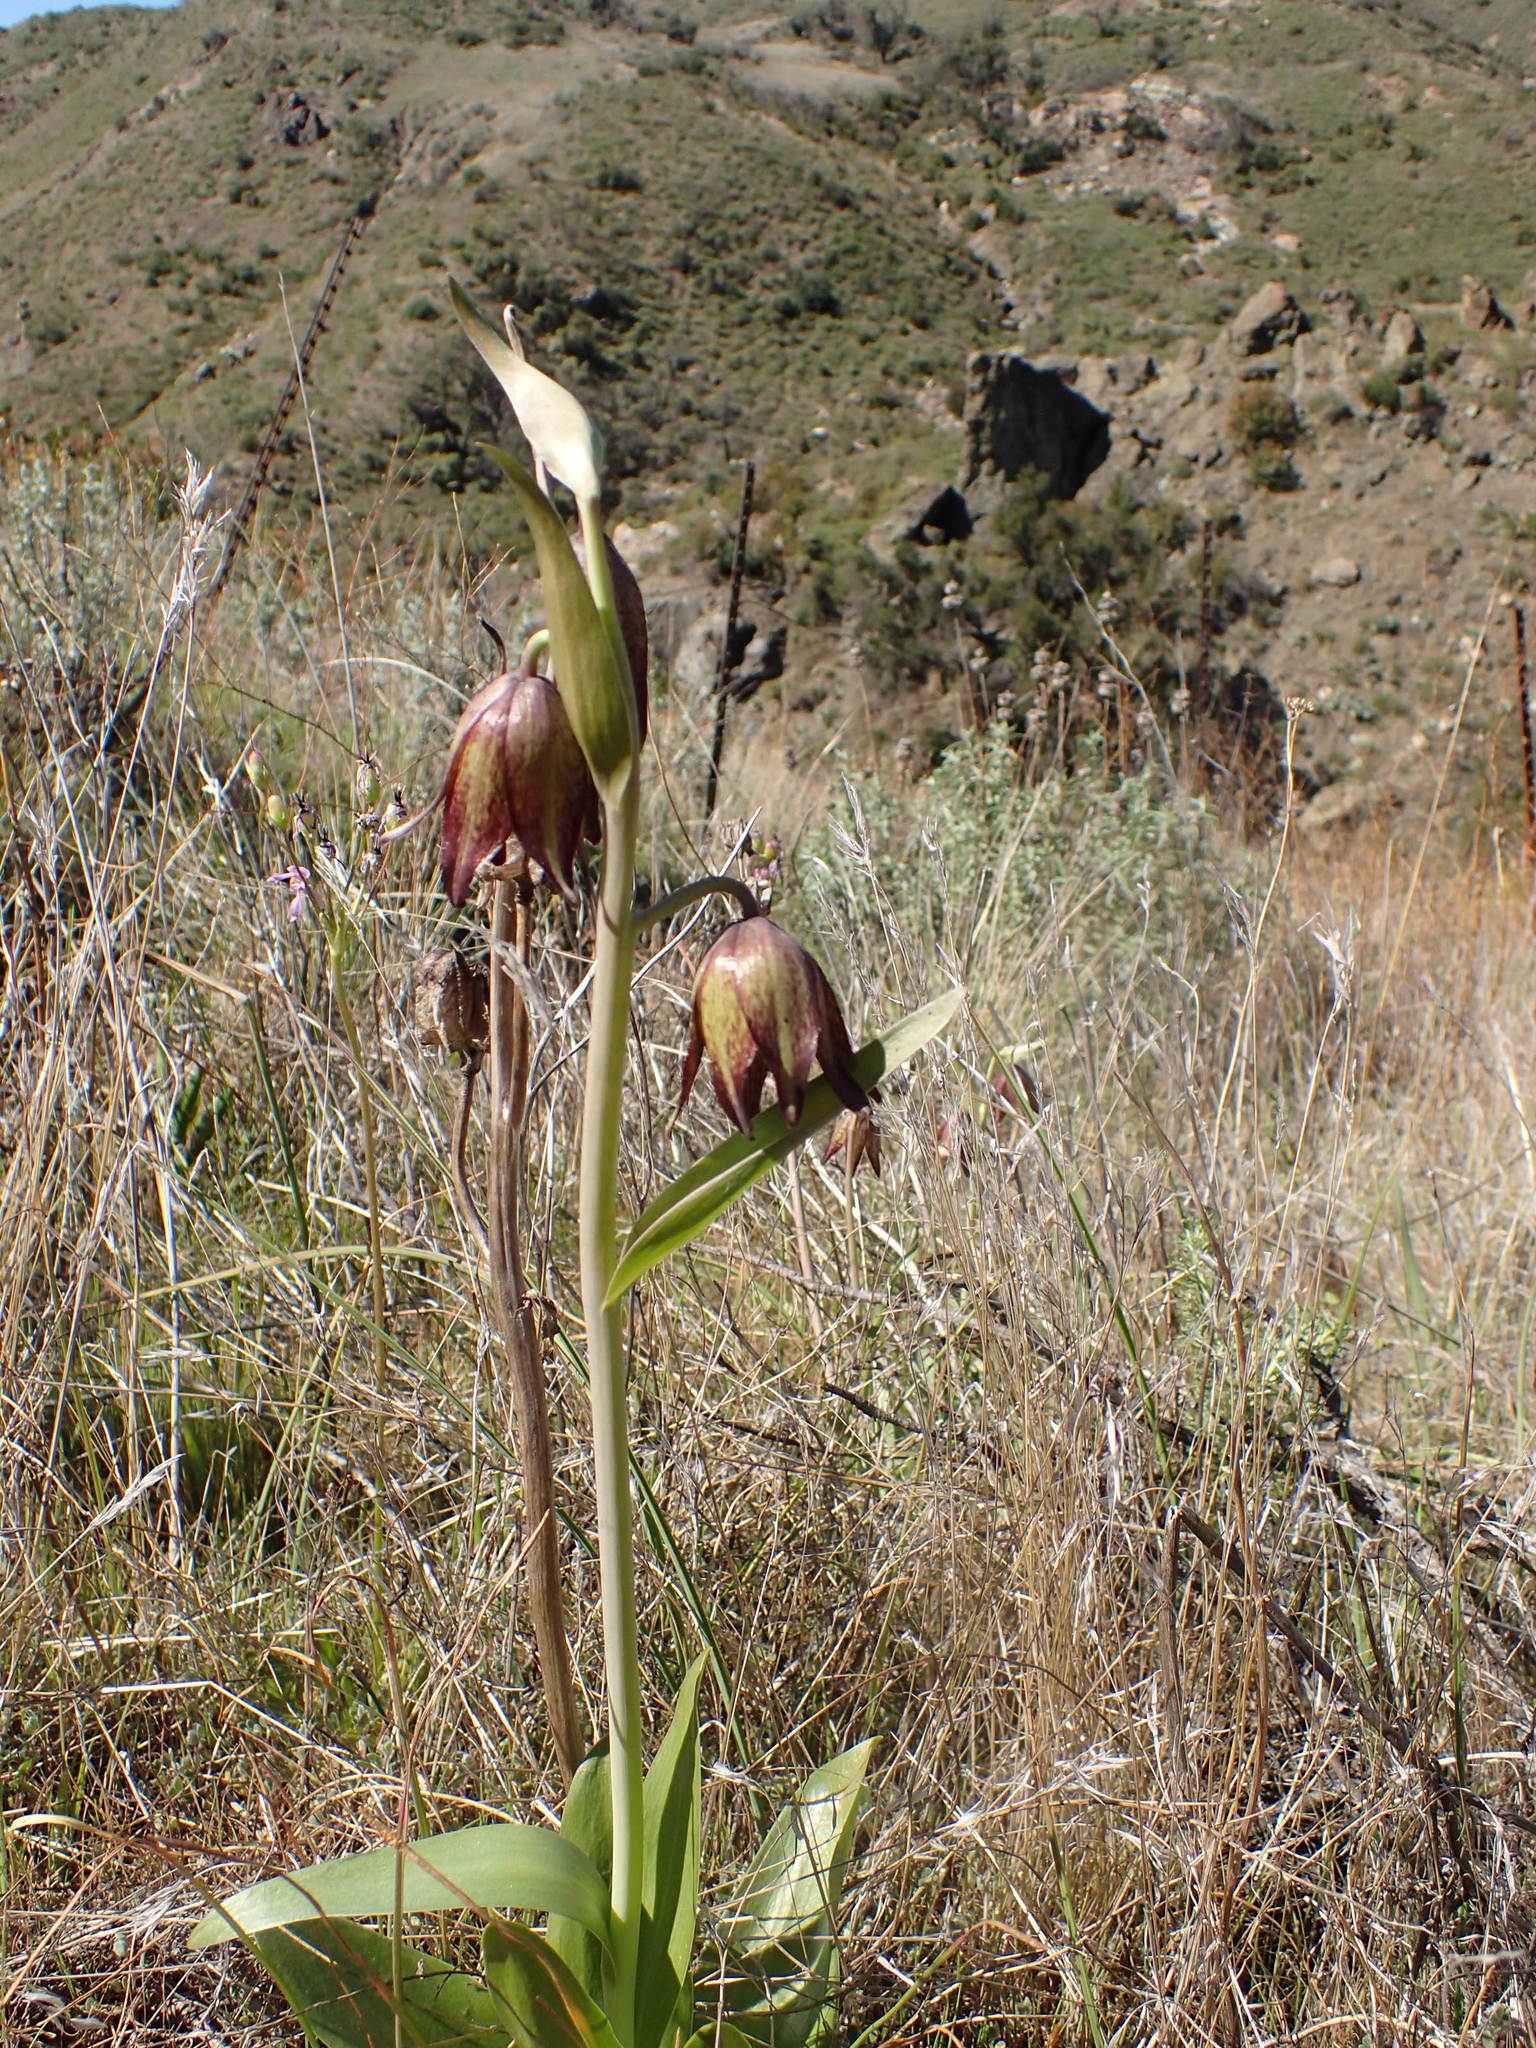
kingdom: Plantae
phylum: Tracheophyta
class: Liliopsida
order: Liliales
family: Liliaceae
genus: Fritillaria
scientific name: Fritillaria biflora
